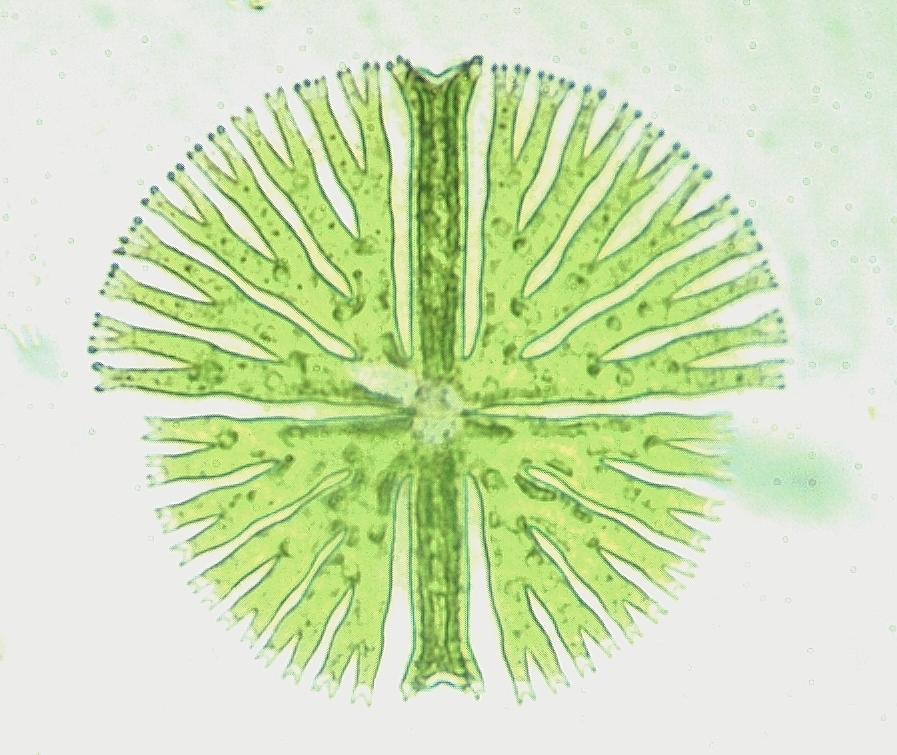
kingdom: Plantae
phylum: Charophyta
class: Conjugatophyceae
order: Desmidiales
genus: Micrasterias
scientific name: Micrasterias radiosa
